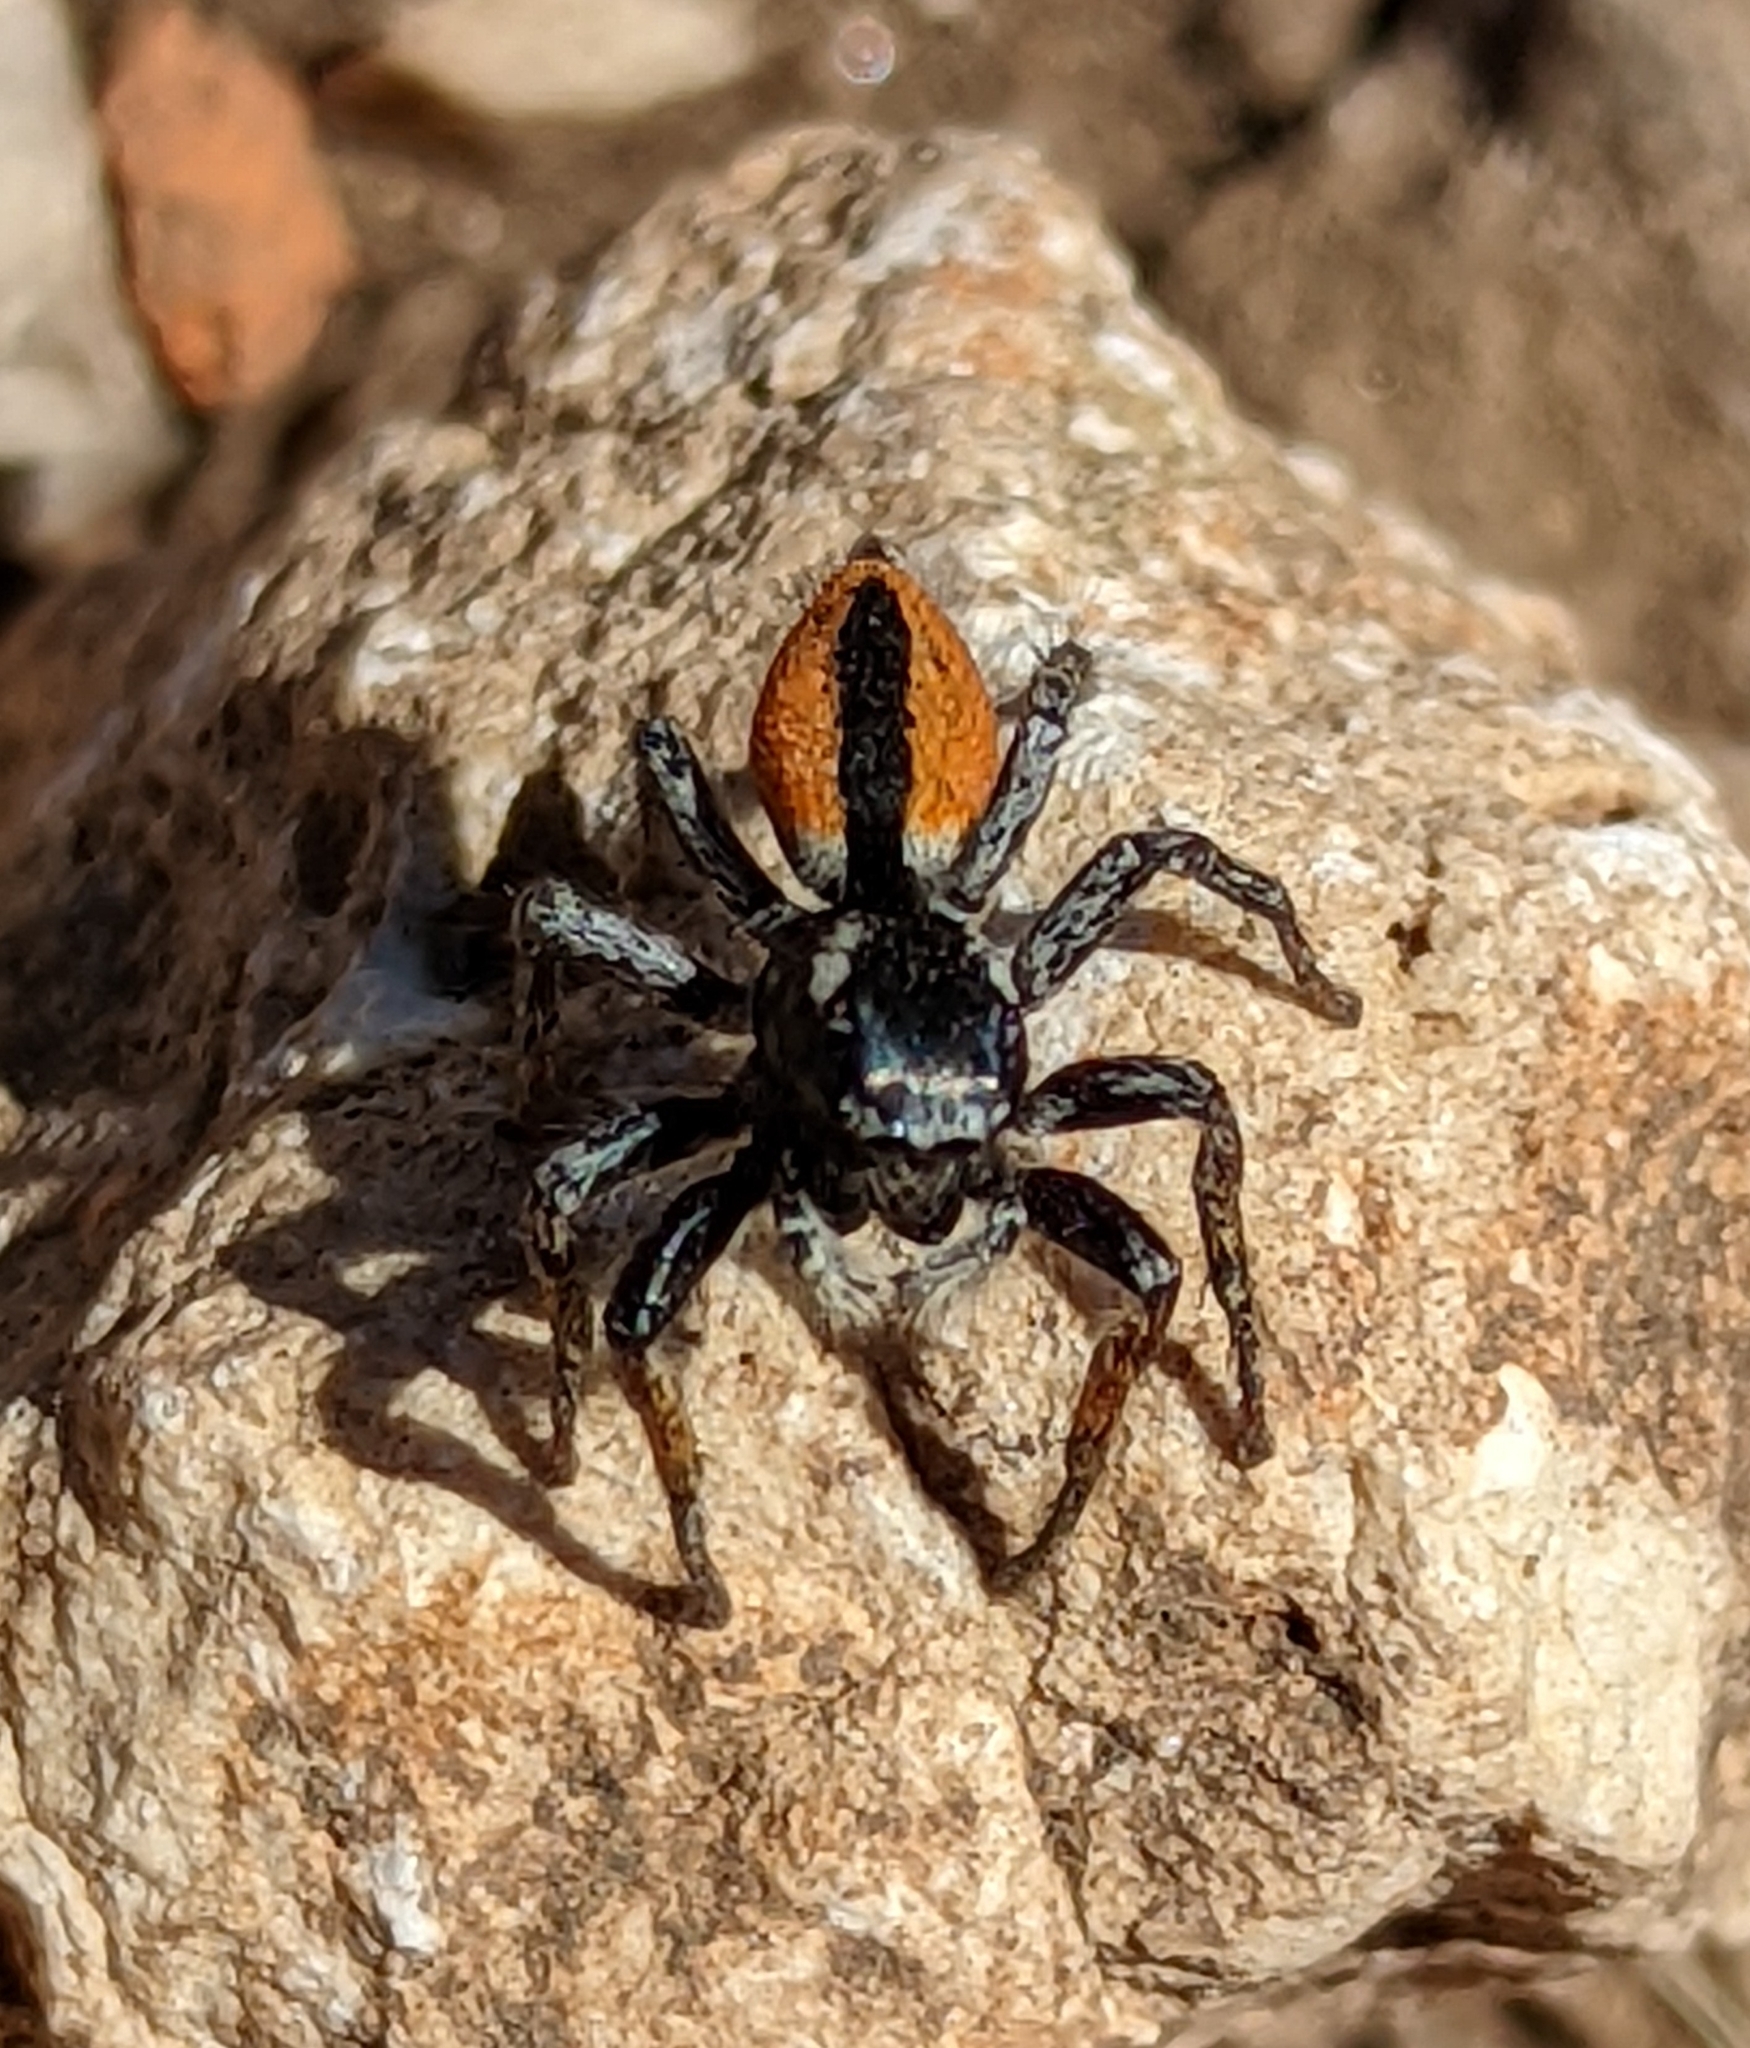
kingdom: Animalia
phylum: Arthropoda
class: Arachnida
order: Araneae
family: Salticidae
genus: Philaeus
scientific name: Philaeus chrysops
